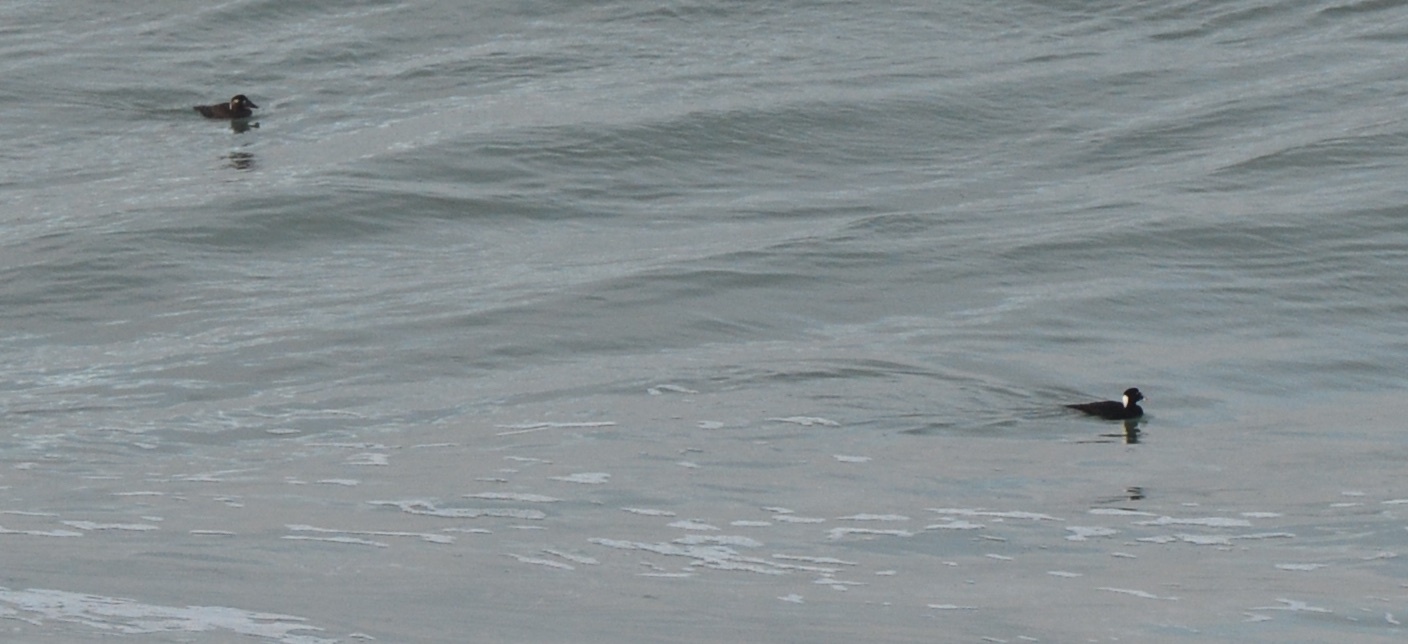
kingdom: Animalia
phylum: Chordata
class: Aves
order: Anseriformes
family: Anatidae
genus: Melanitta
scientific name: Melanitta perspicillata
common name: Surf scoter
